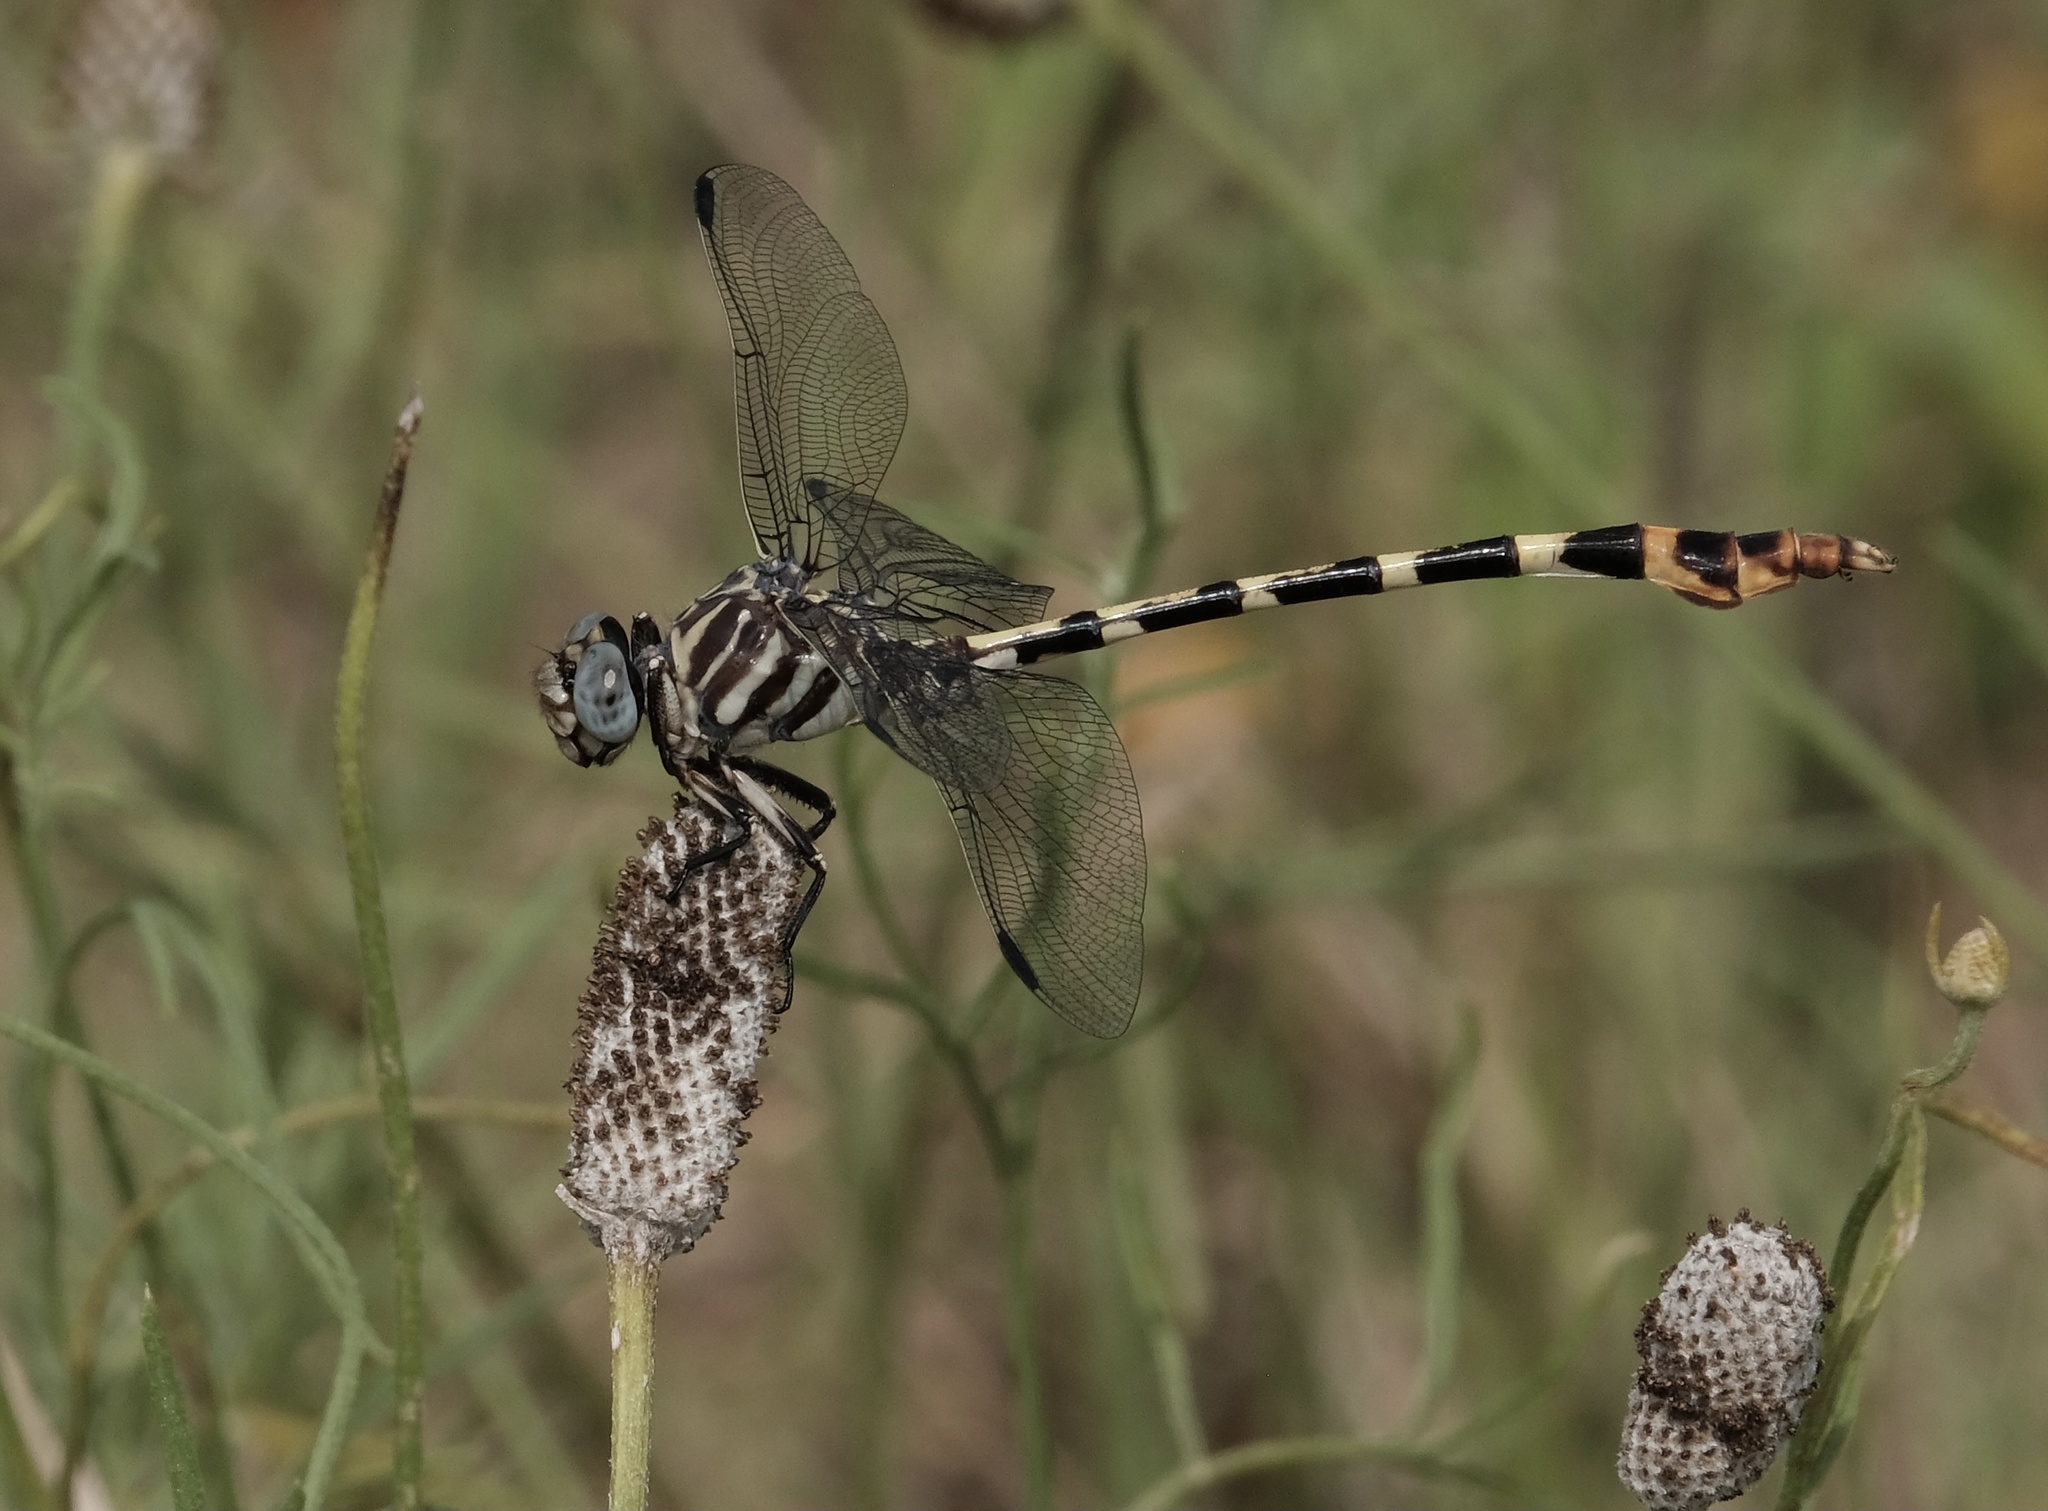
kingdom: Animalia
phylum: Arthropoda
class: Insecta
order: Odonata
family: Gomphidae
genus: Phyllogomphoides
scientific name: Phyllogomphoides stigmatus
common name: Four-striped leaftail
